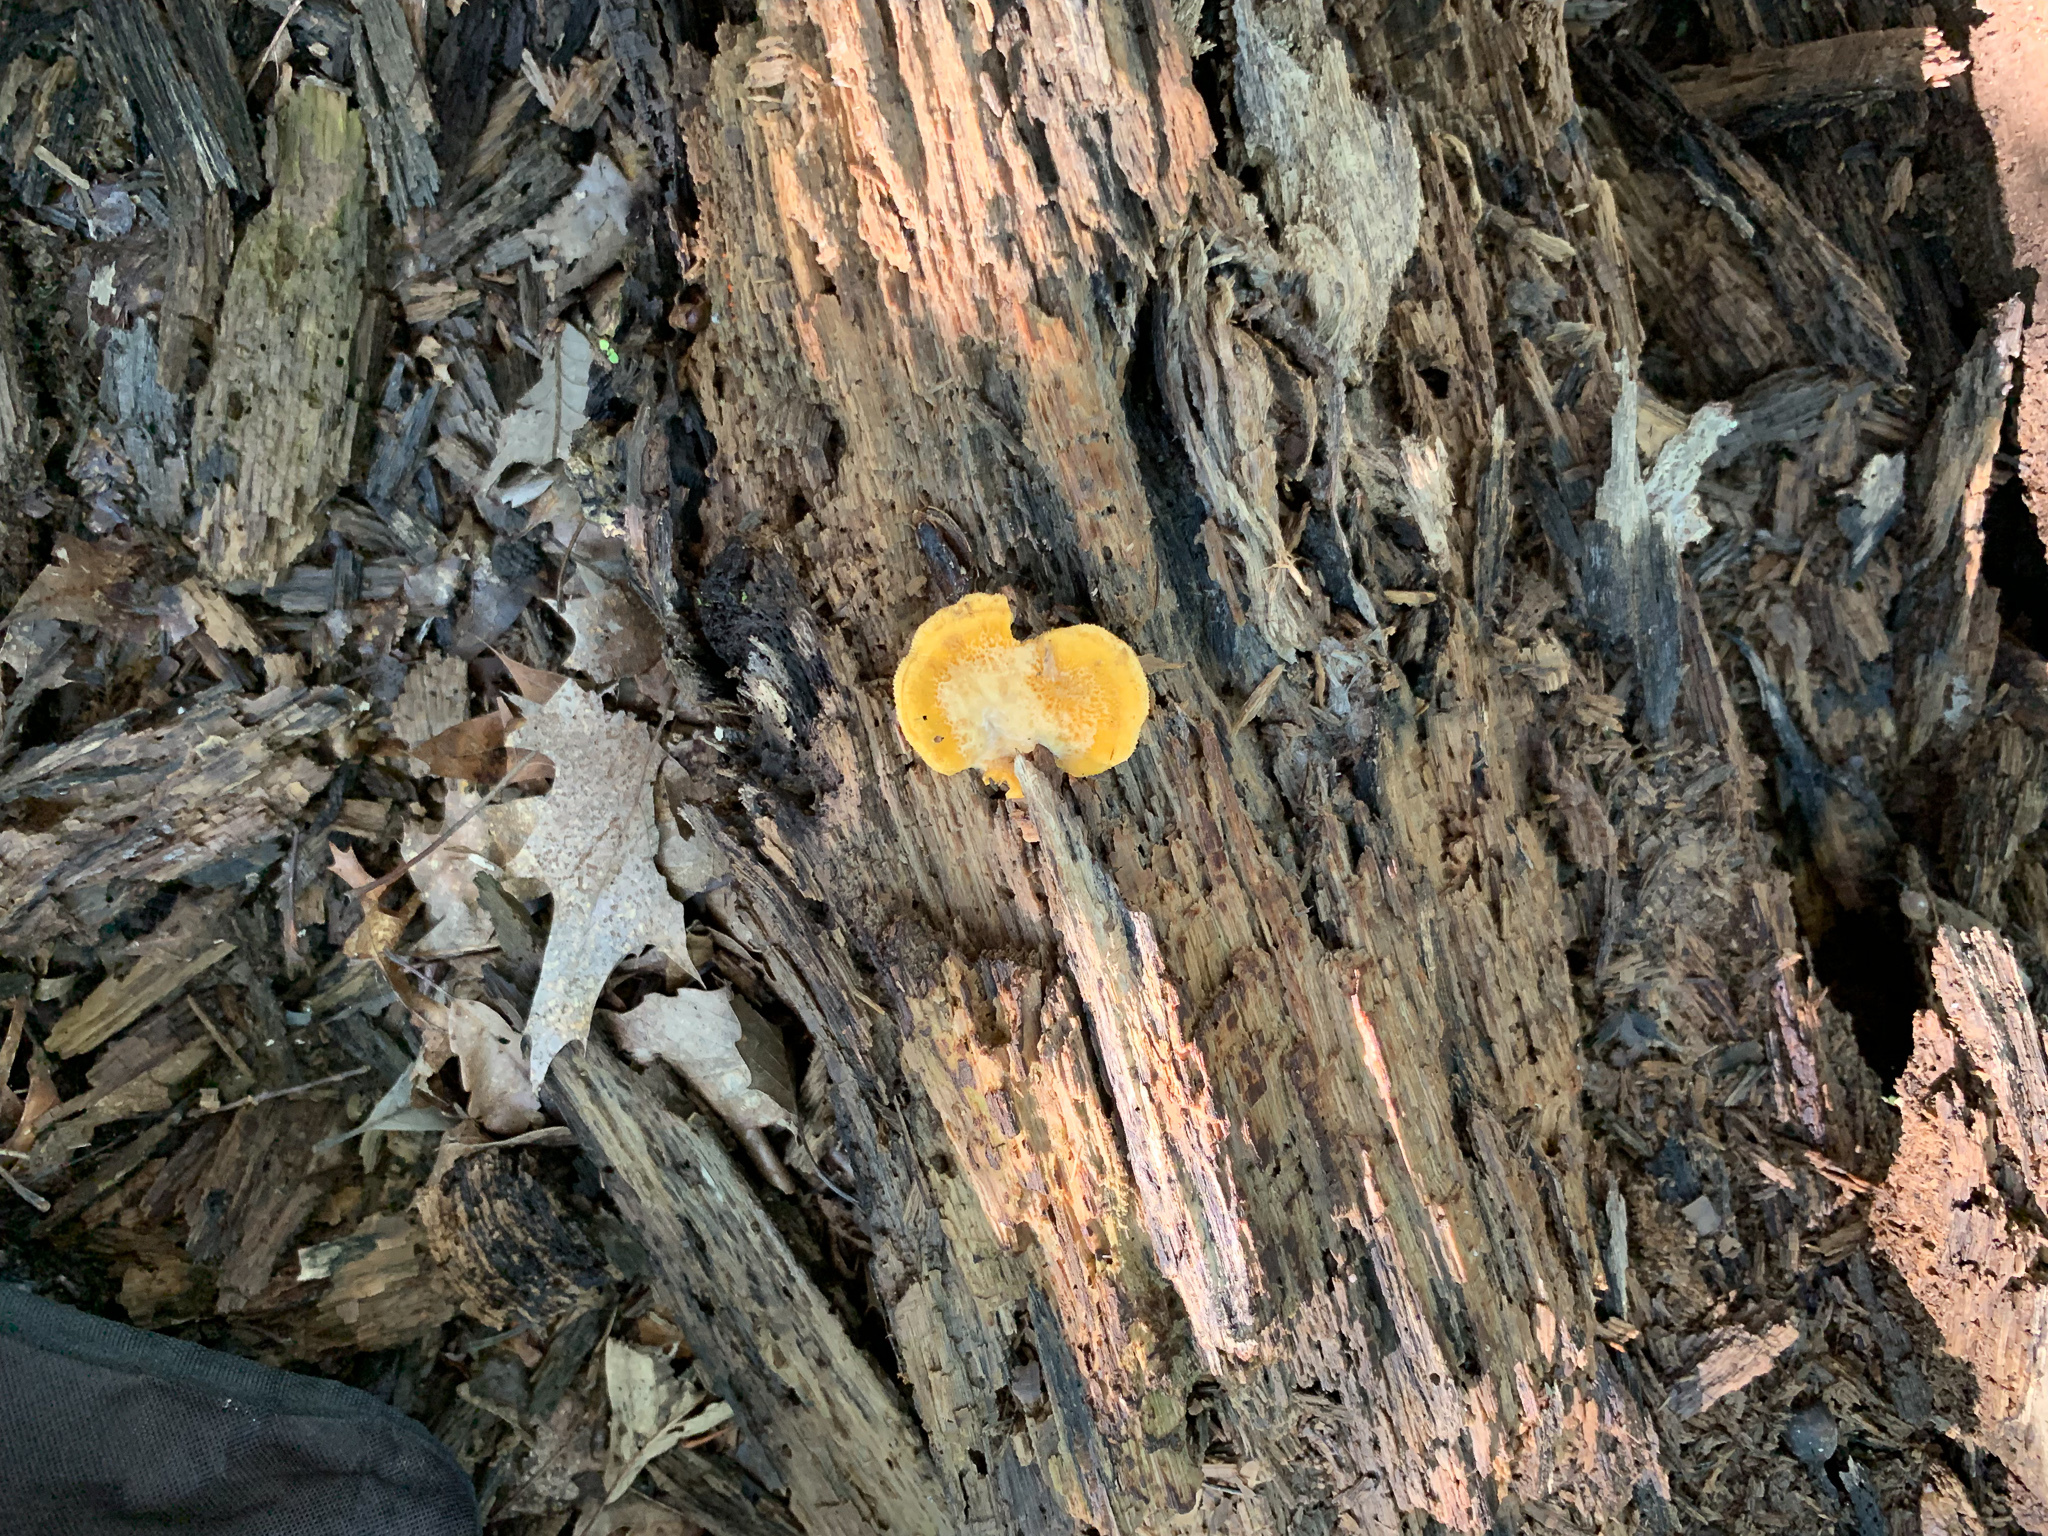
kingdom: Fungi
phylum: Basidiomycota
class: Agaricomycetes
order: Agaricales
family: Phyllotopsidaceae
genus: Phyllotopsis
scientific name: Phyllotopsis nidulans
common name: Orange mock oyster
